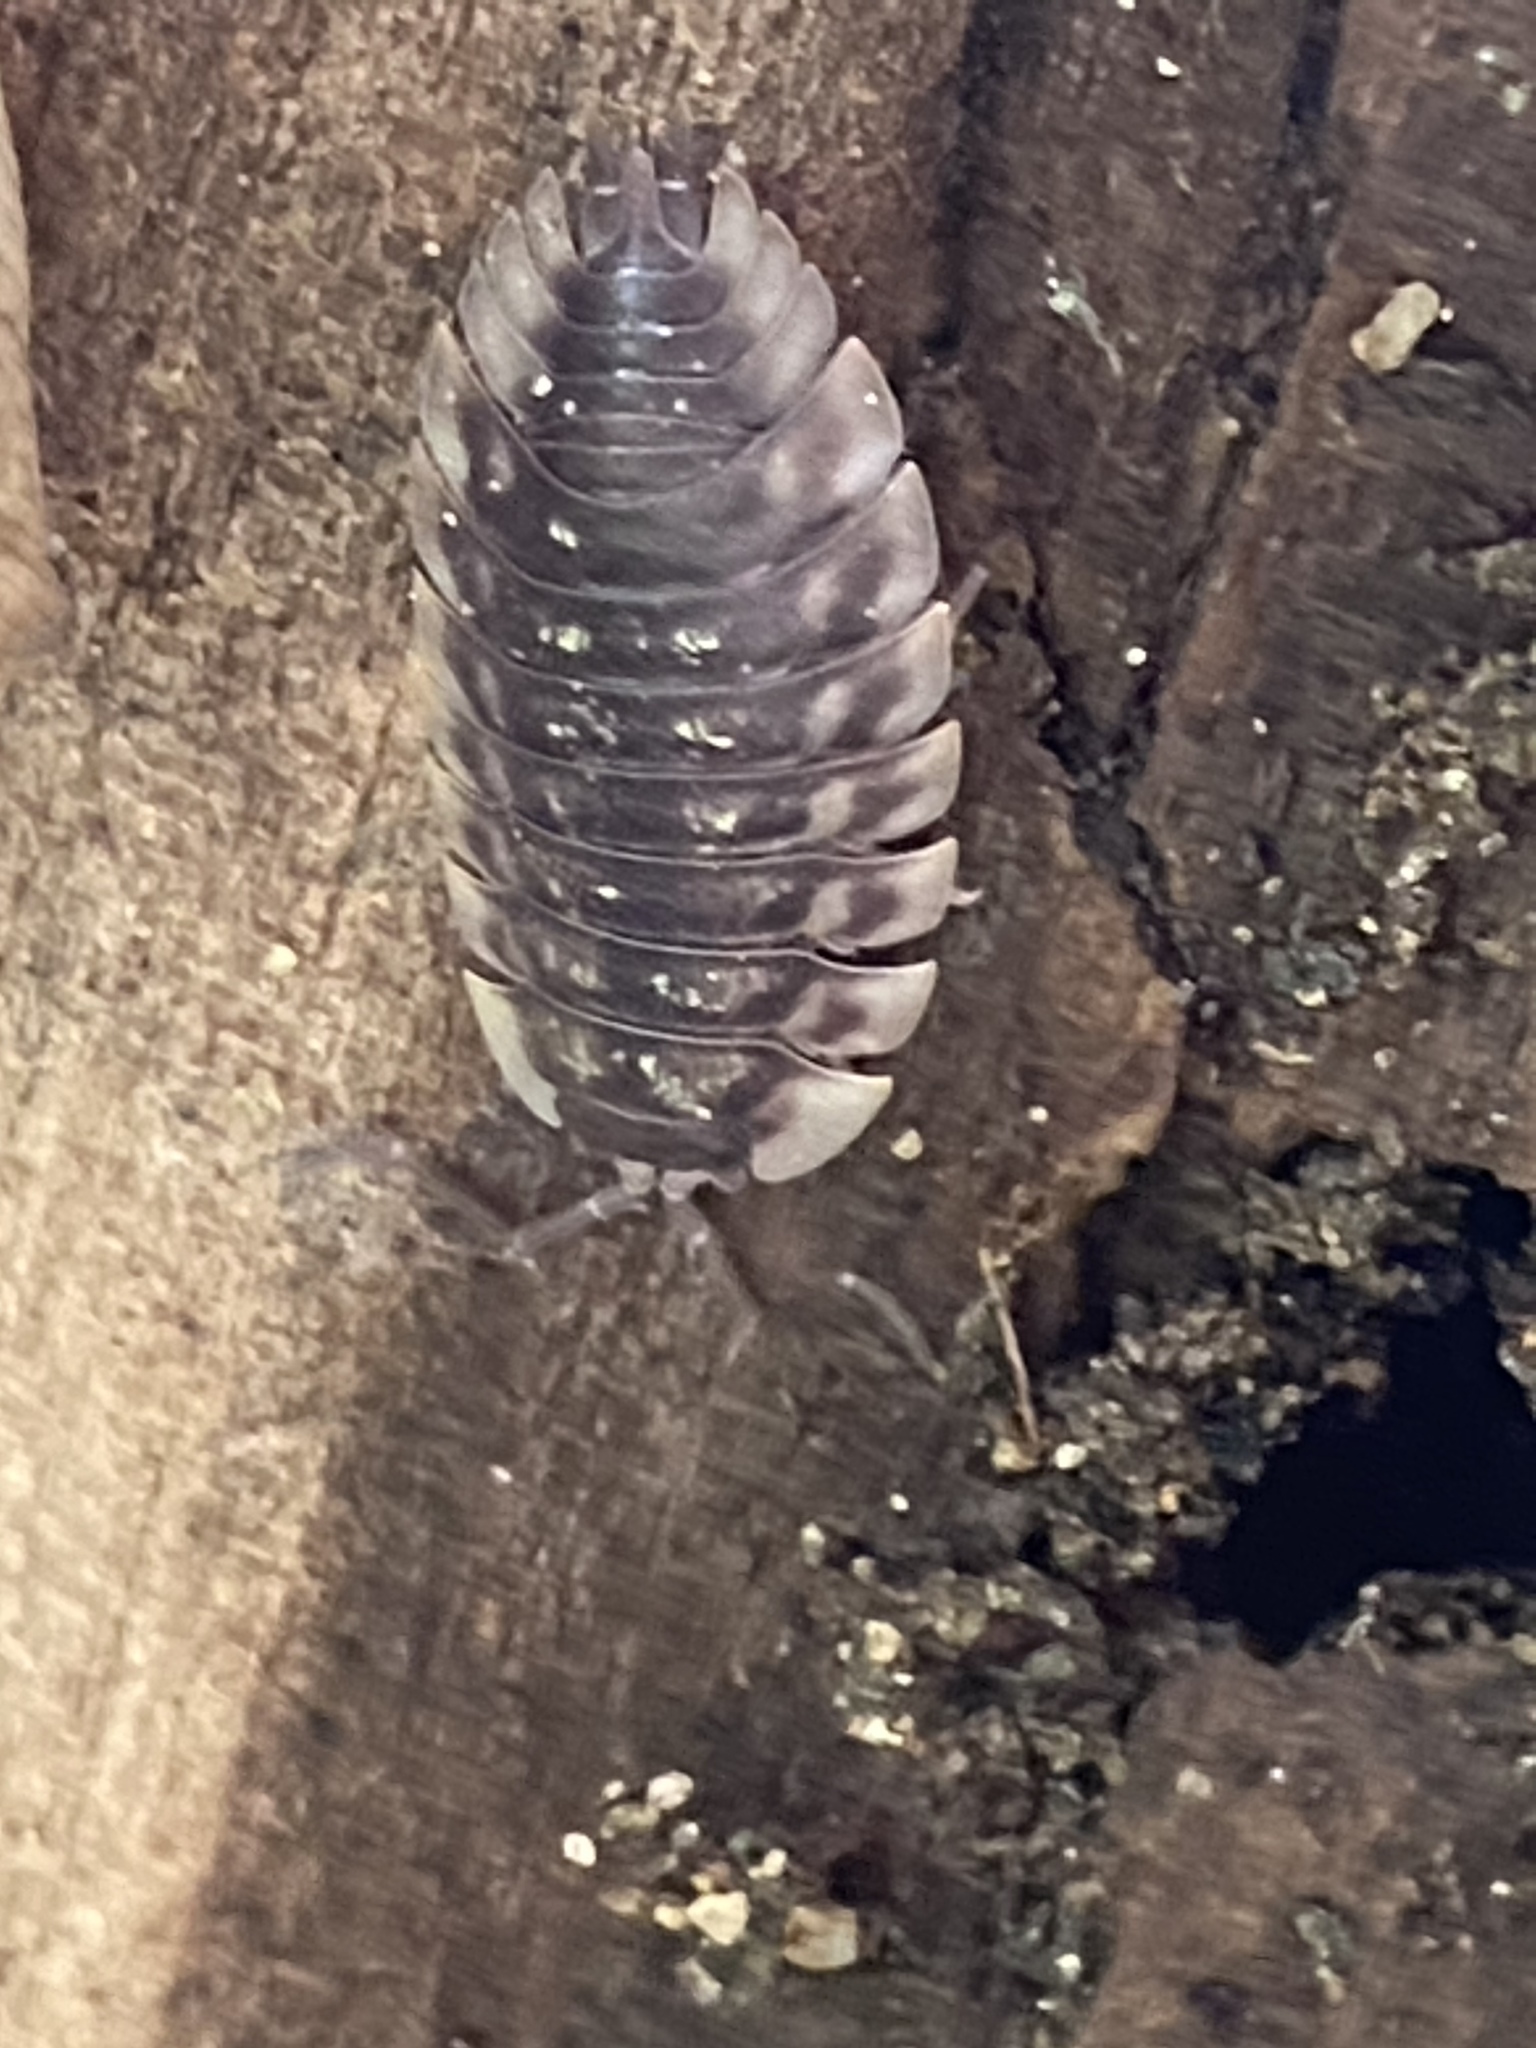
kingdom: Animalia
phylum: Arthropoda
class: Malacostraca
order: Isopoda
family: Oniscidae
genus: Oniscus
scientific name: Oniscus asellus
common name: Common shiny woodlouse
